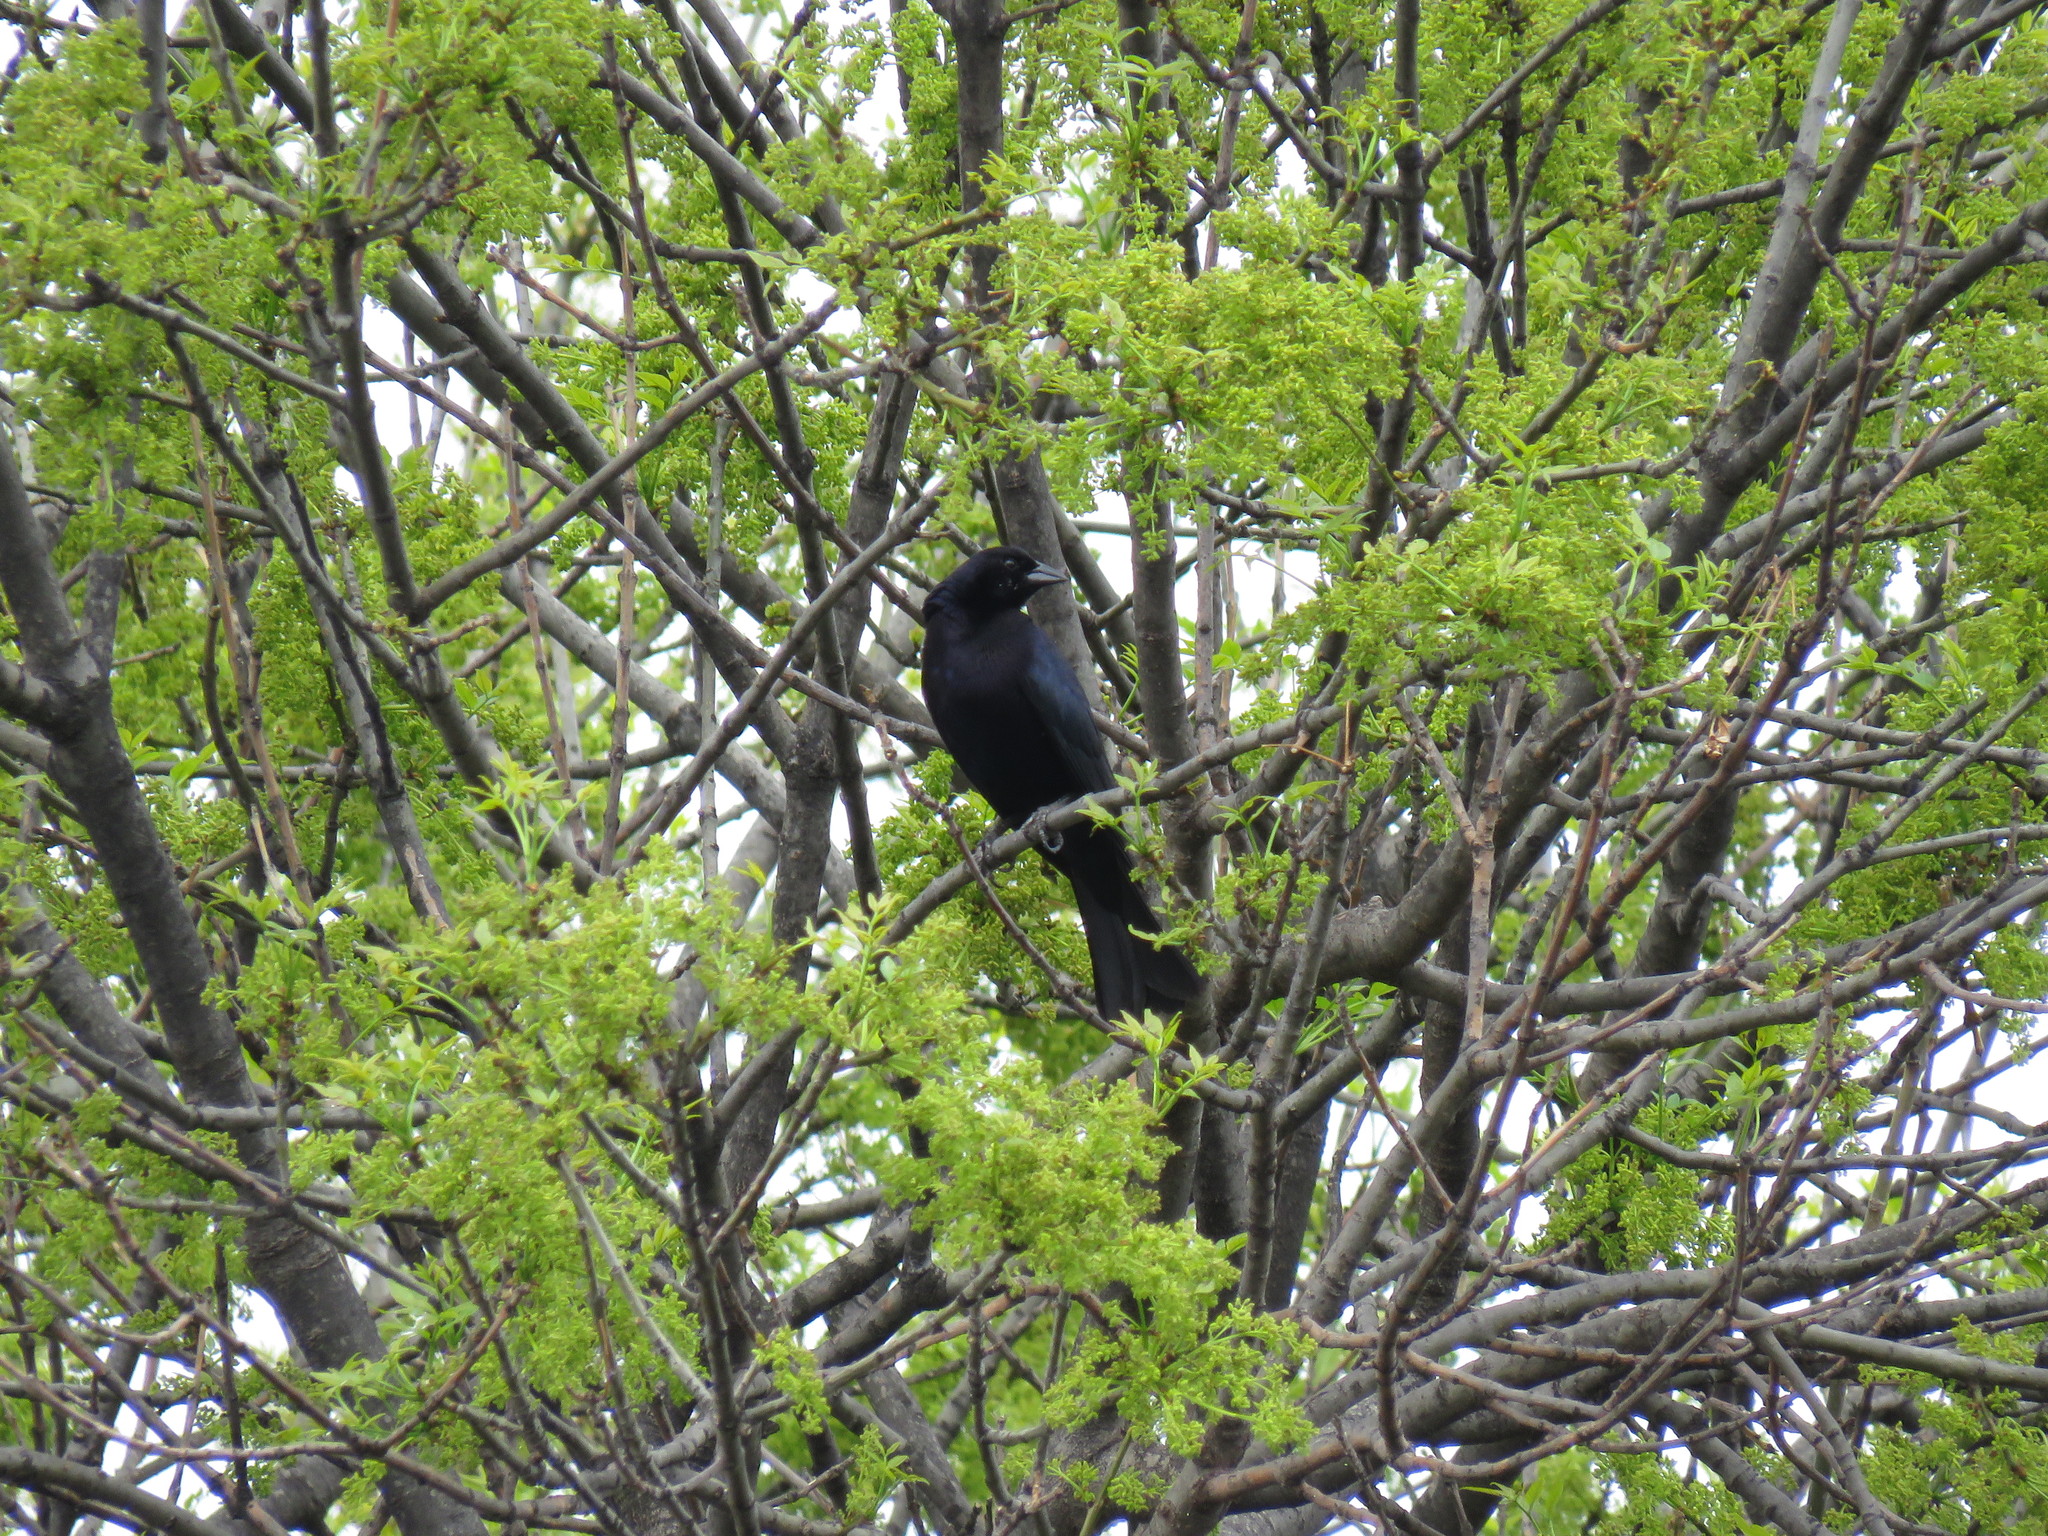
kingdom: Animalia
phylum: Chordata
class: Aves
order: Passeriformes
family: Icteridae
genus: Molothrus
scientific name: Molothrus bonariensis
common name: Shiny cowbird
